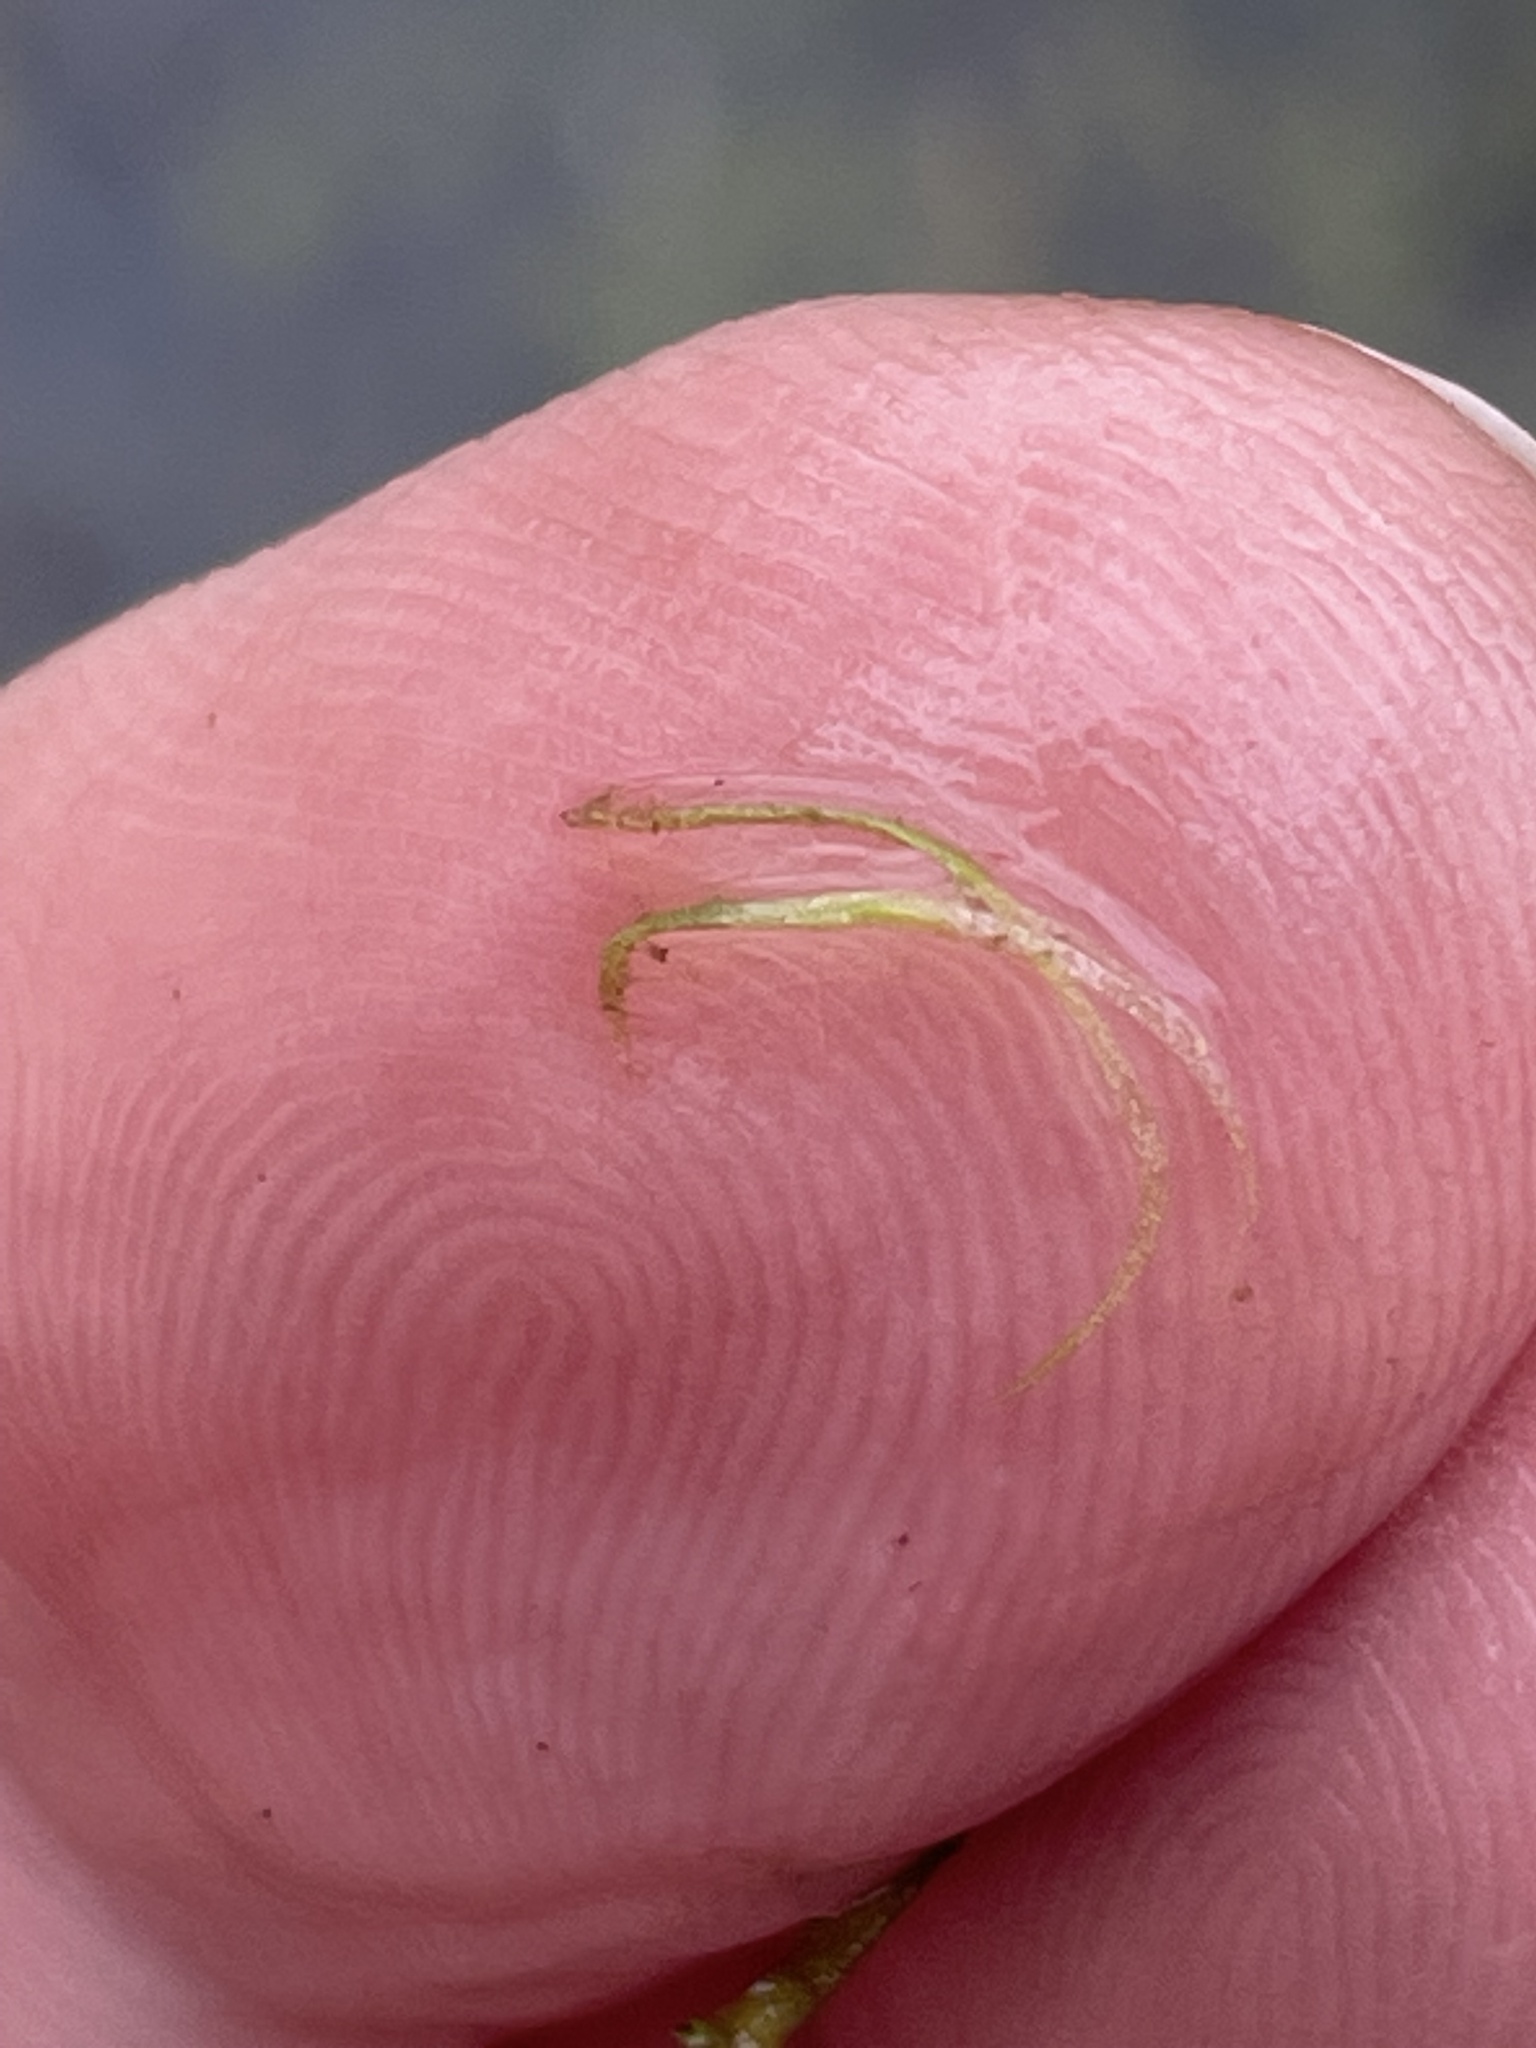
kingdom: Plantae
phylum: Tracheophyta
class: Liliopsida
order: Alismatales
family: Araceae
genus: Wolffiella
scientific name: Wolffiella gladiata
